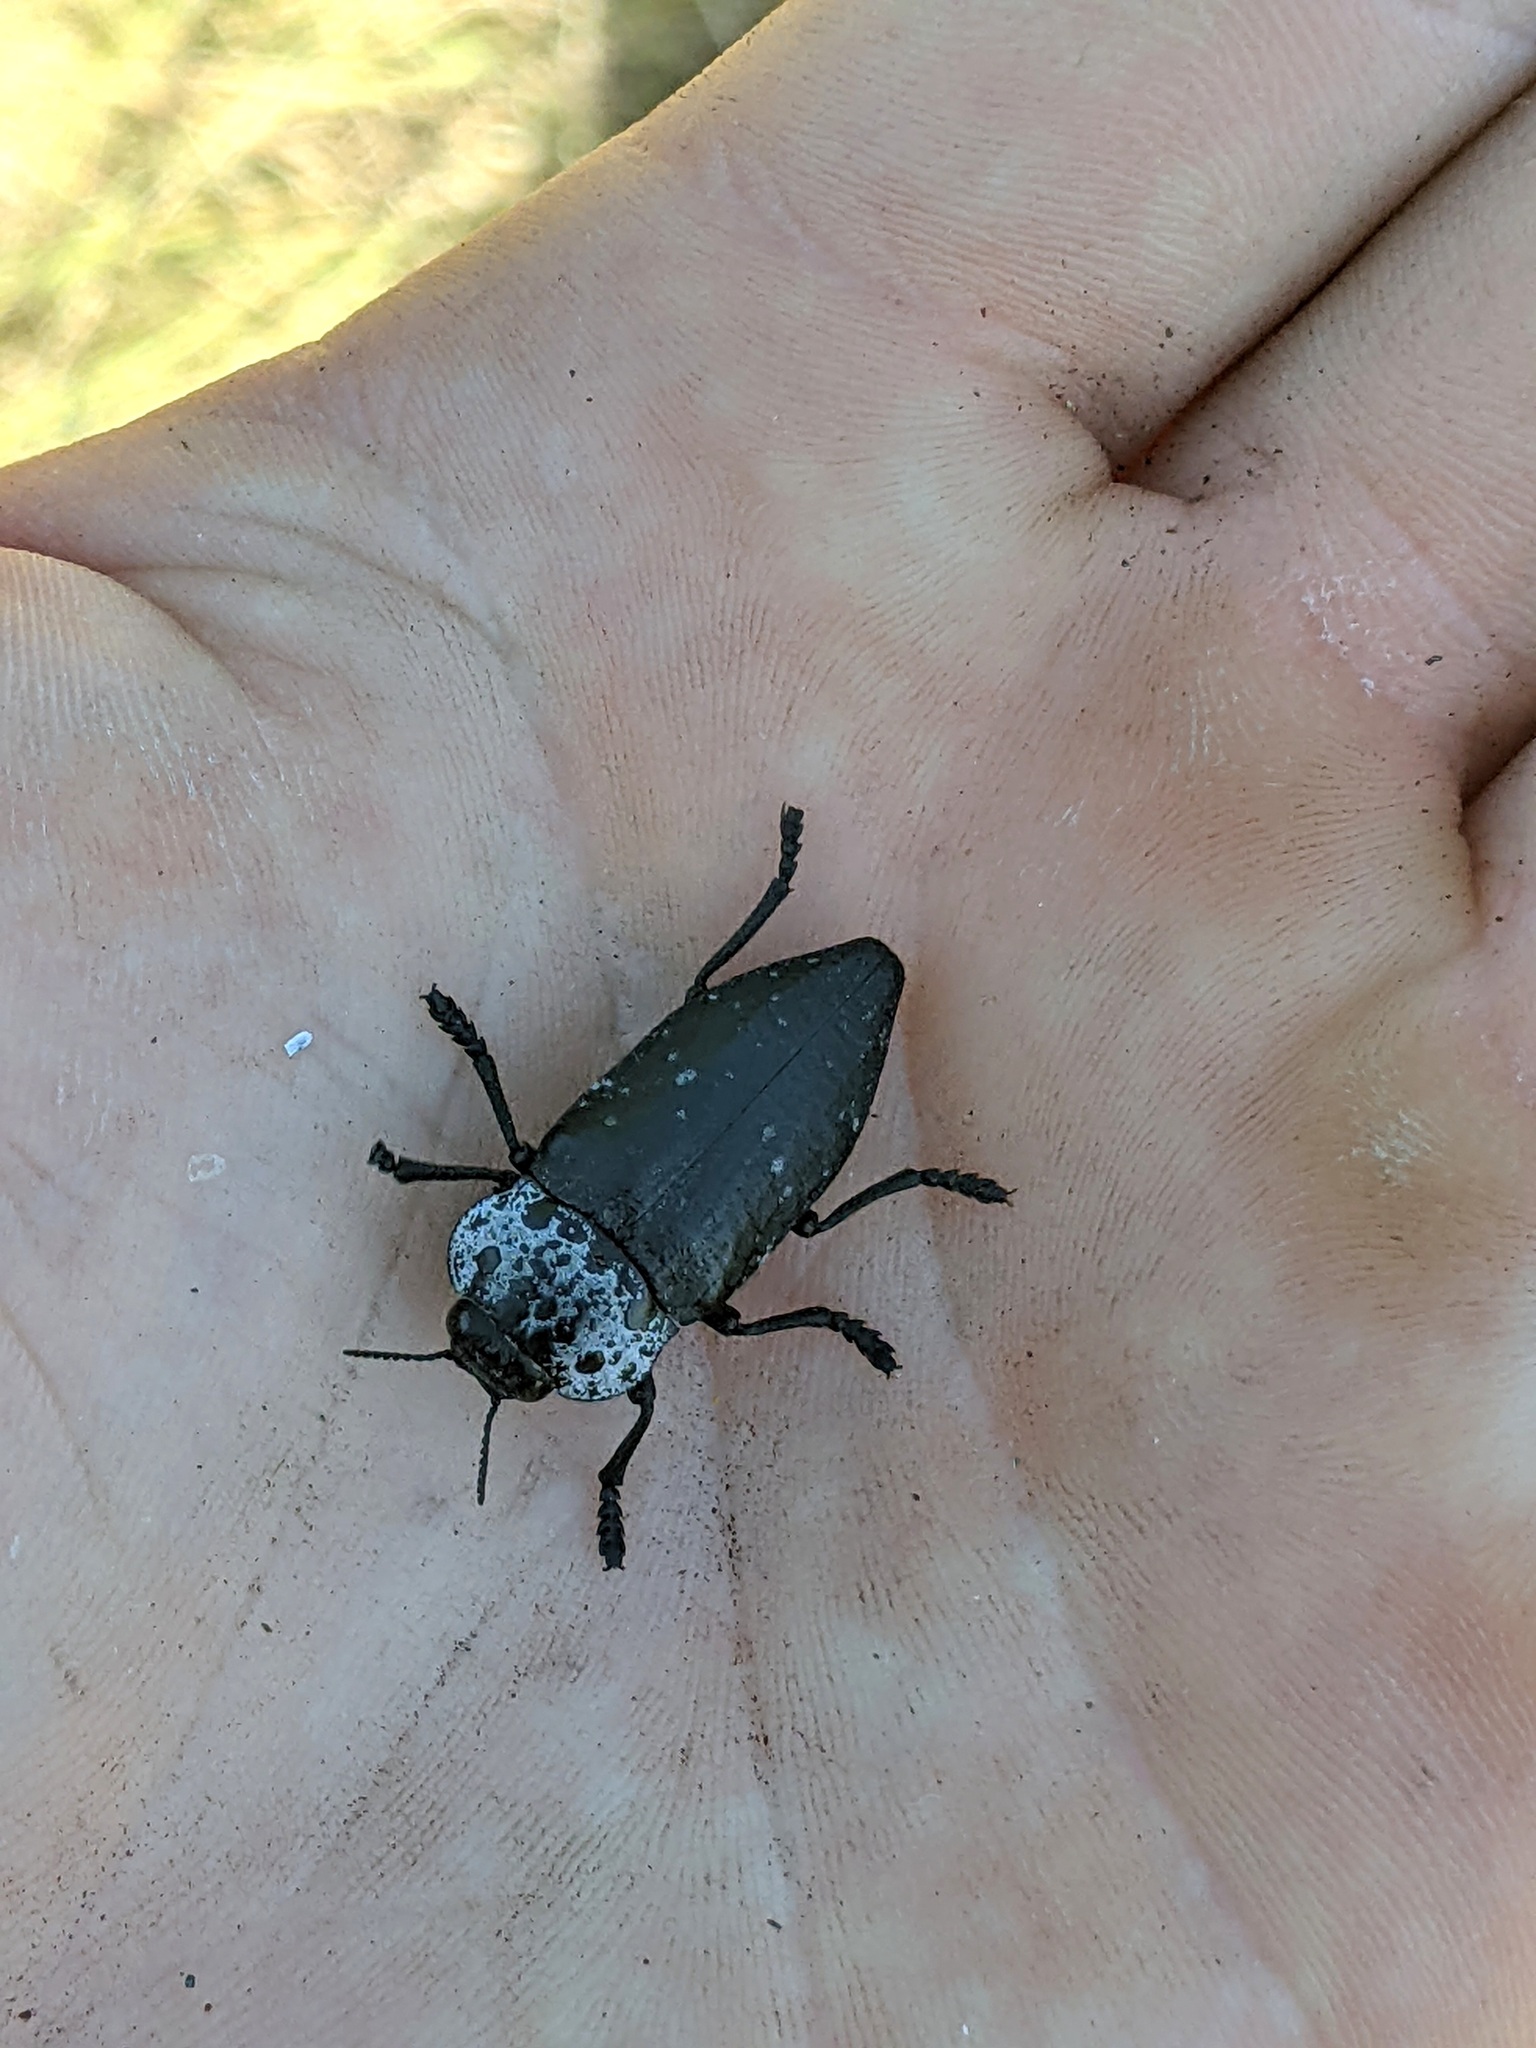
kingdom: Animalia
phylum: Arthropoda
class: Insecta
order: Coleoptera
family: Buprestidae
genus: Capnodis
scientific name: Capnodis tenebrionis
